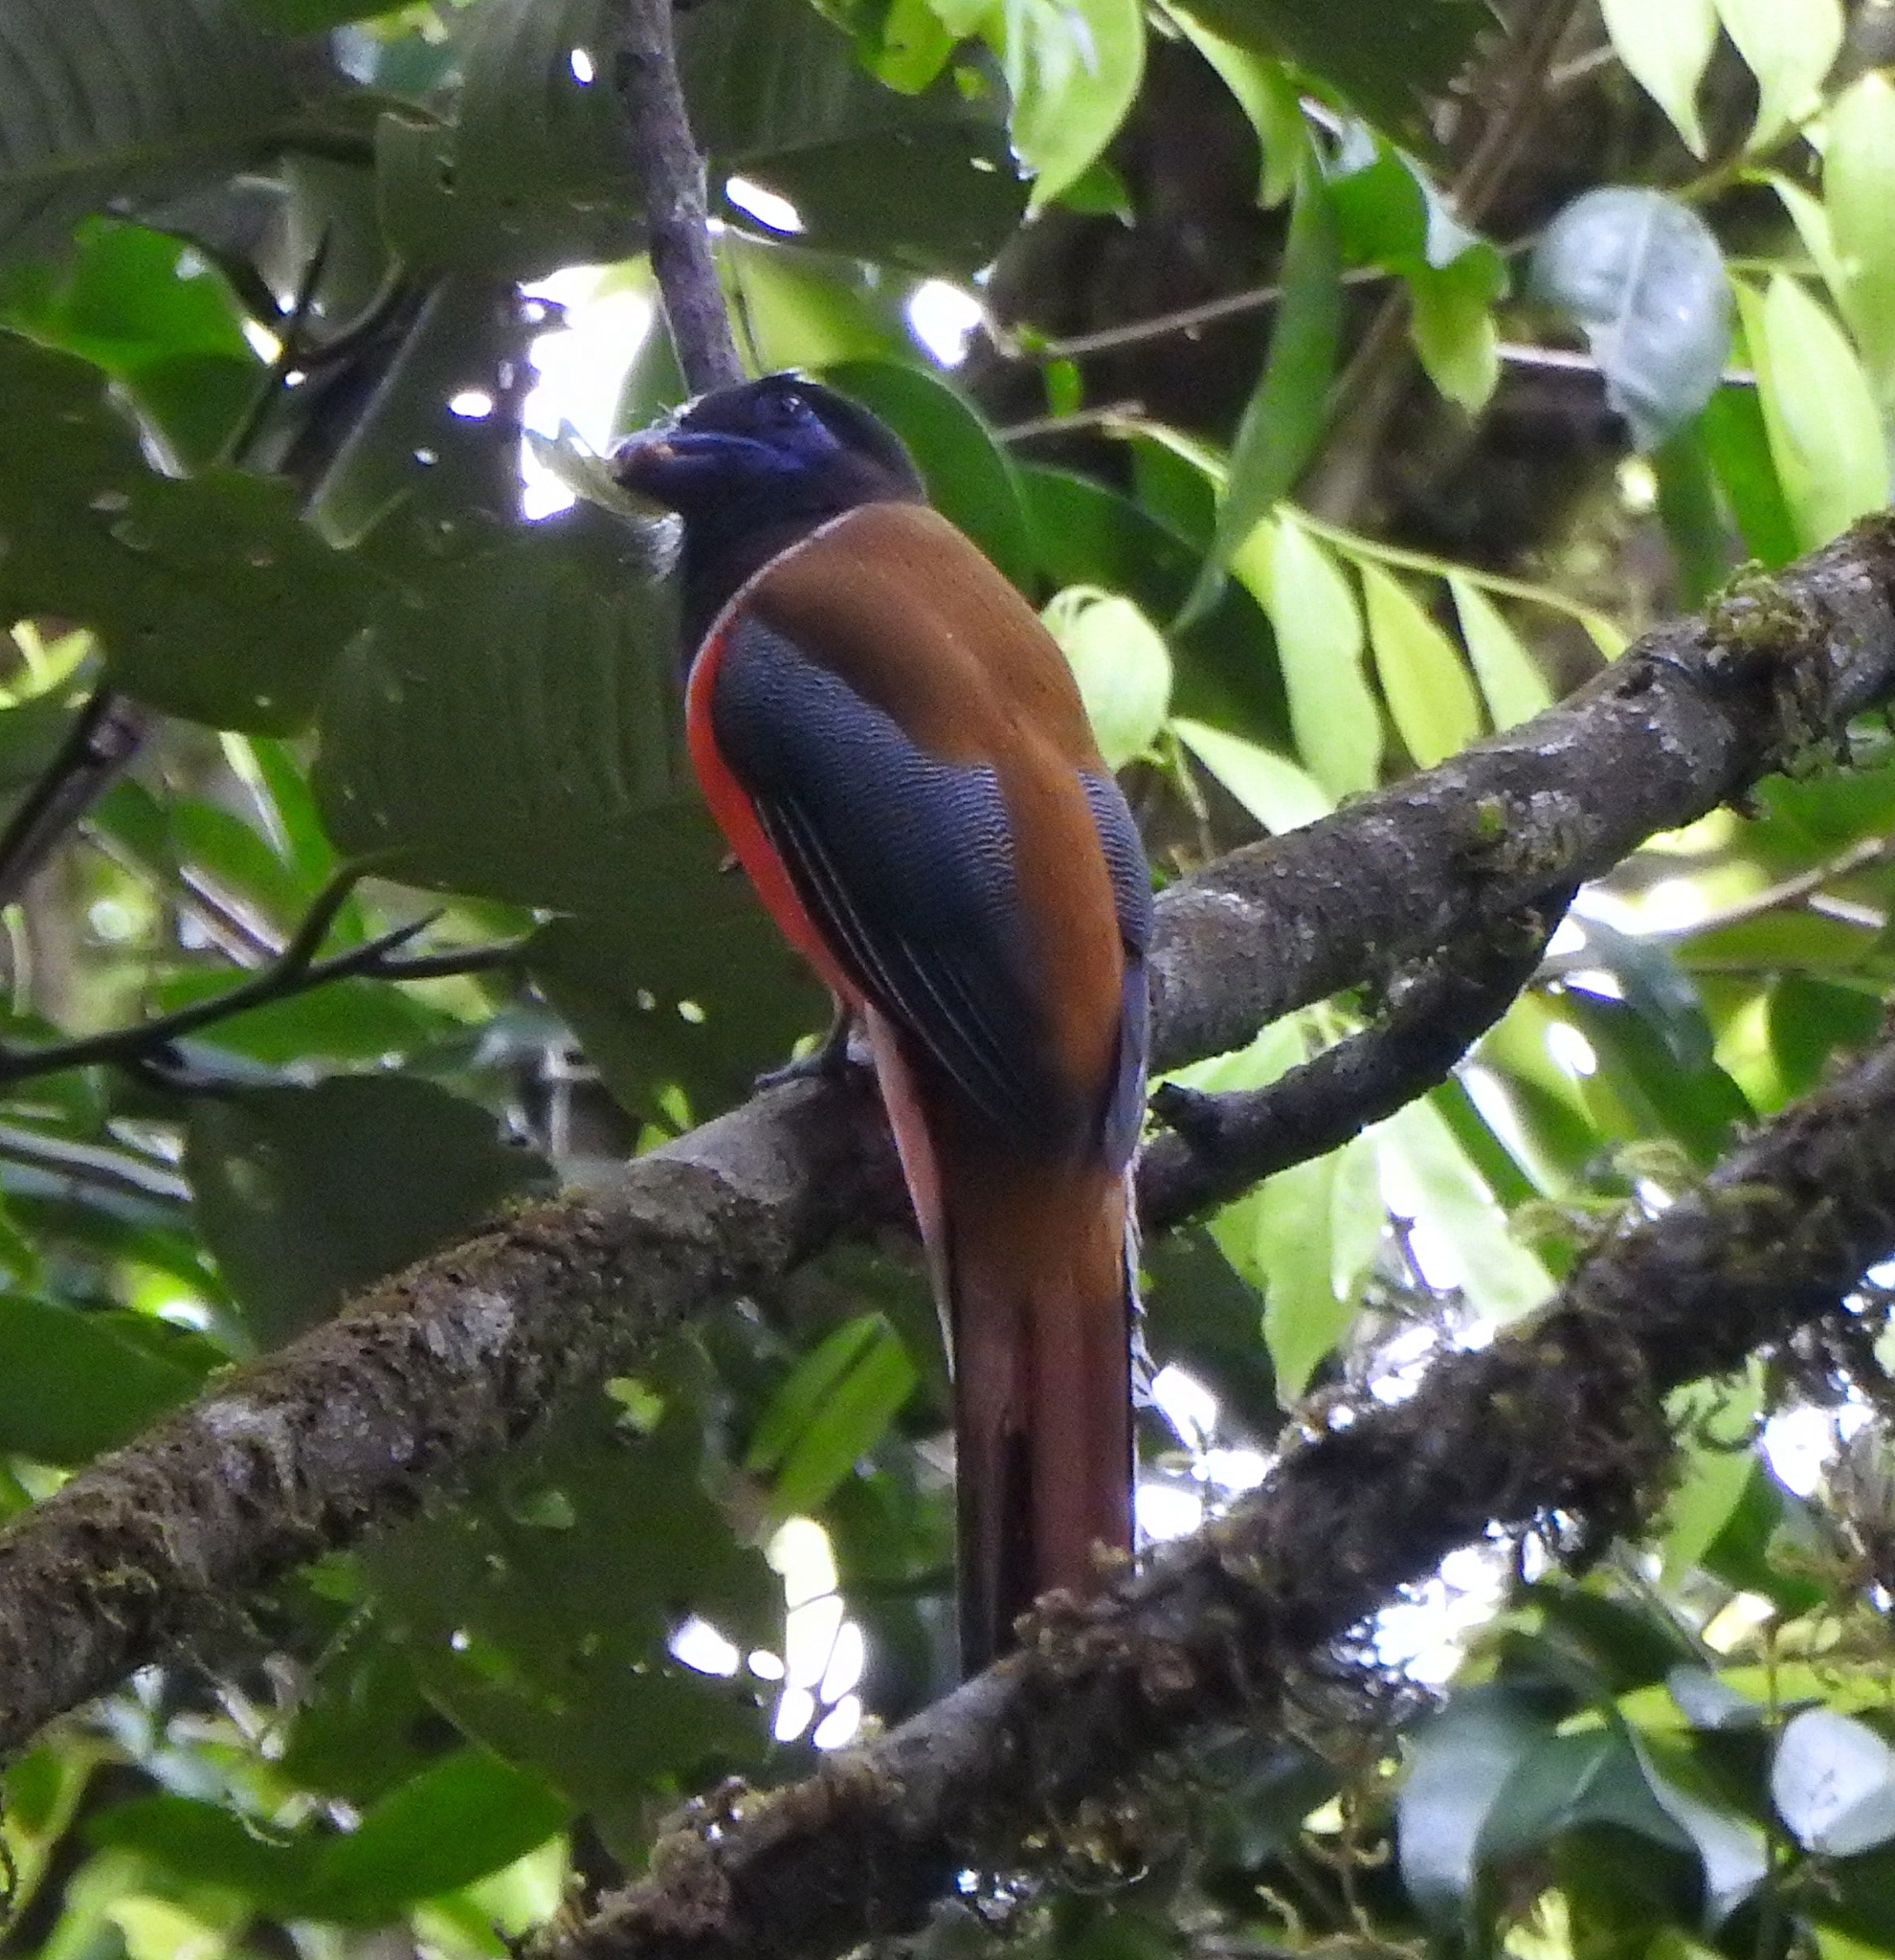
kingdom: Animalia
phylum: Chordata
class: Aves
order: Trogoniformes
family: Trogonidae
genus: Harpactes
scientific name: Harpactes fasciatus
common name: Malabar trogon
